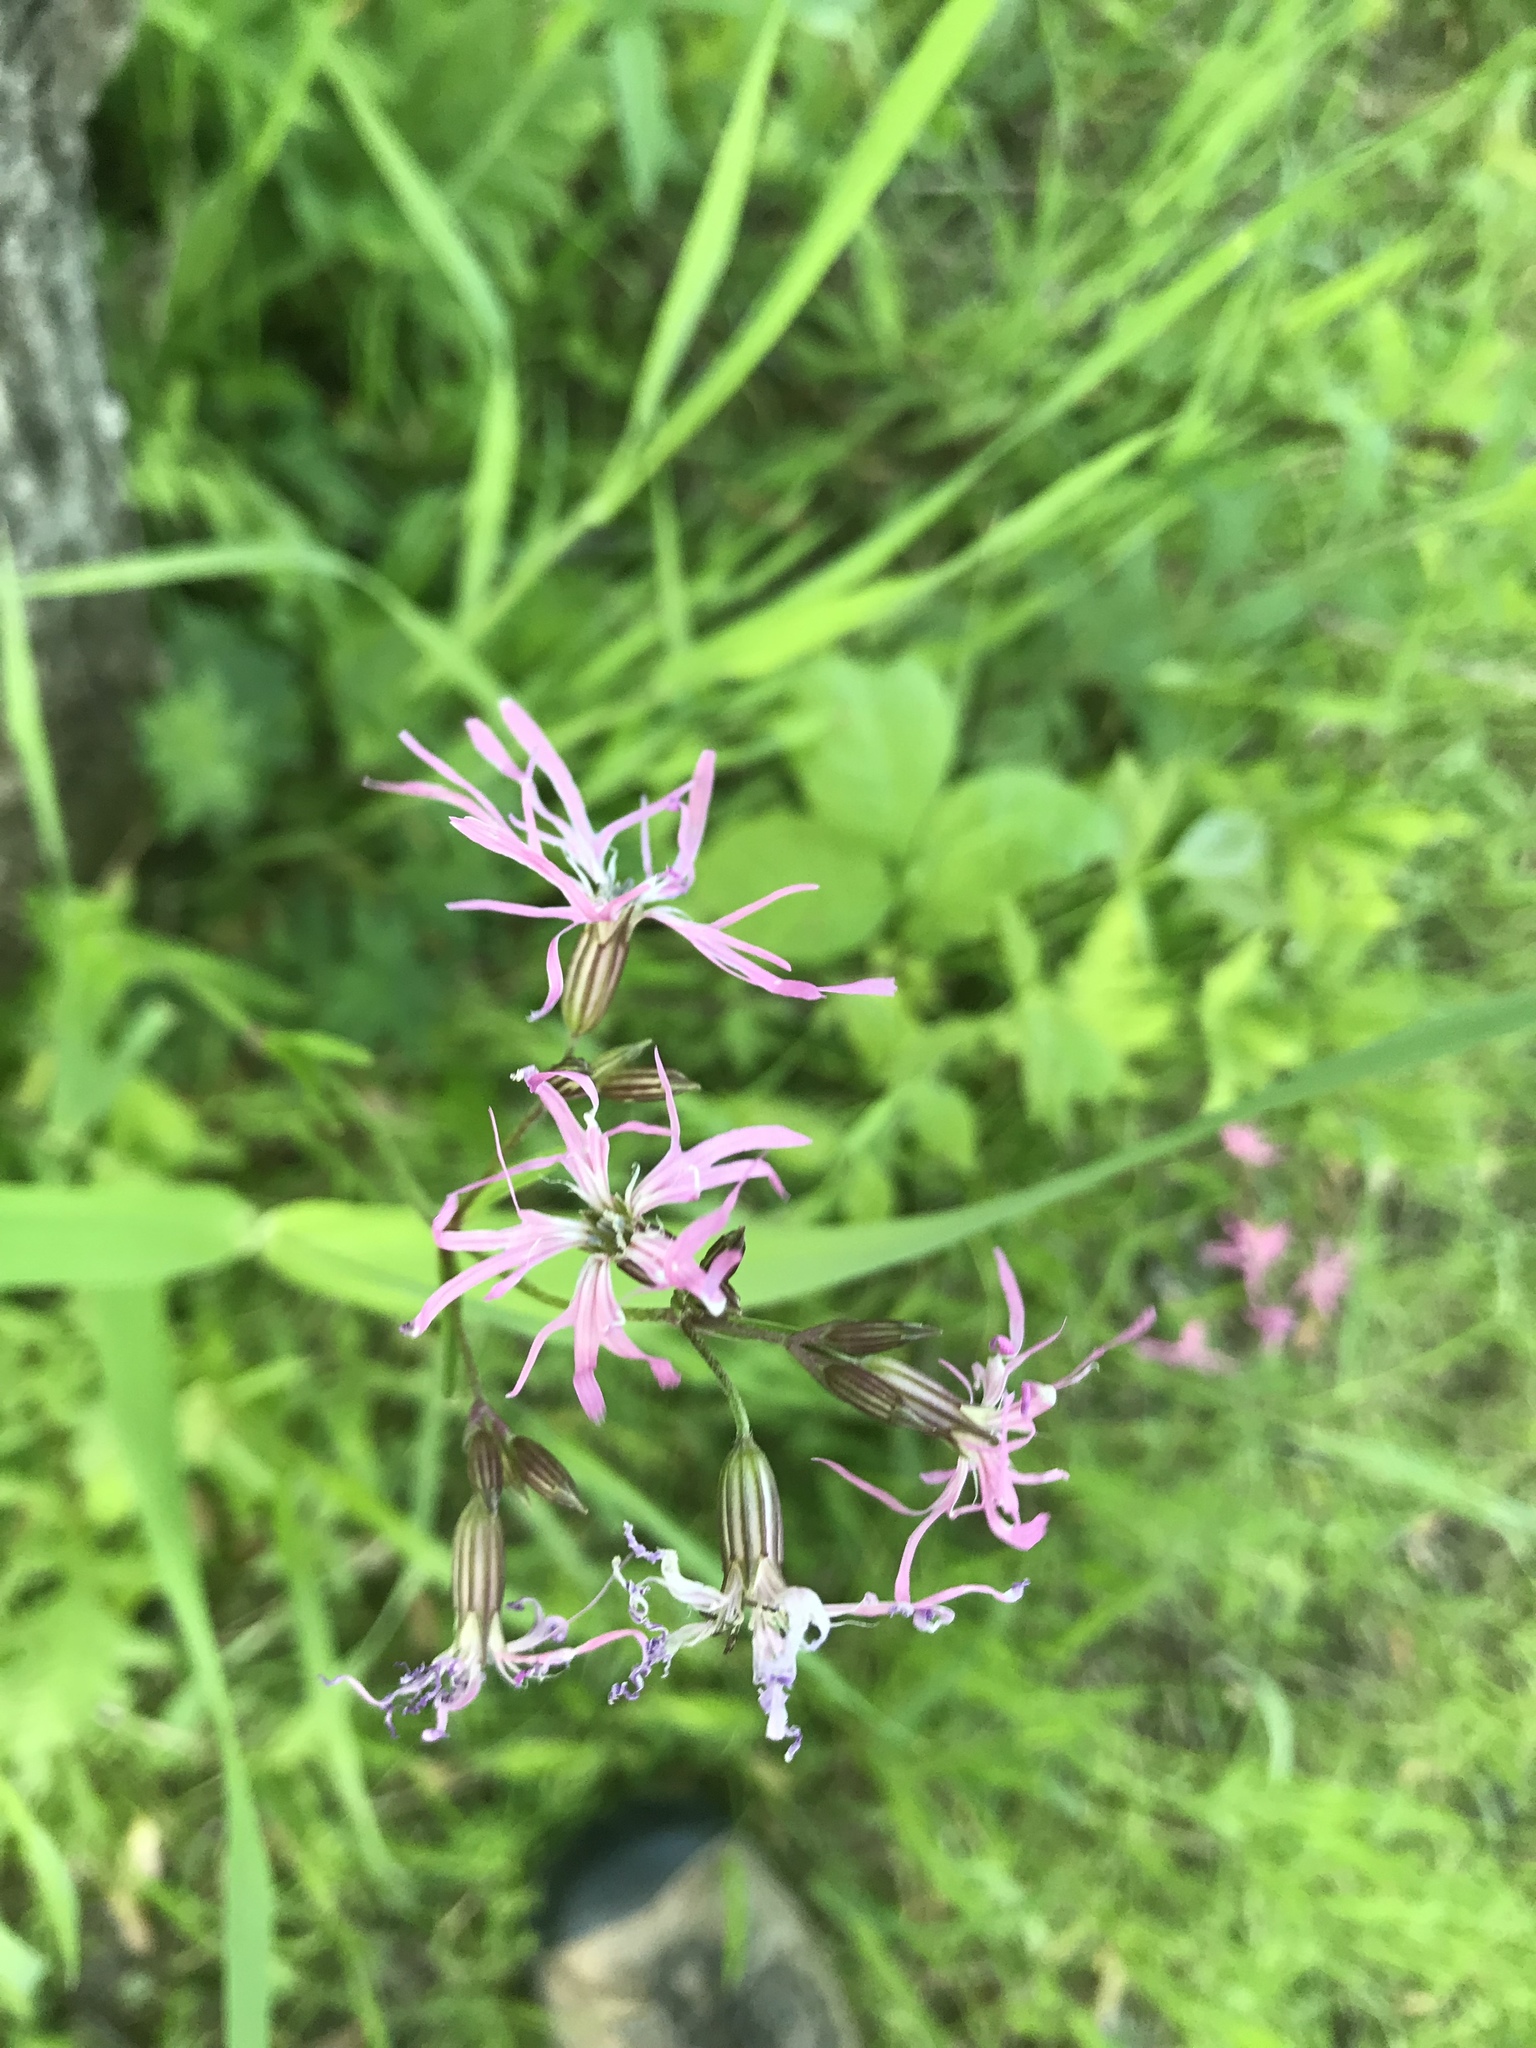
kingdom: Plantae
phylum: Tracheophyta
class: Magnoliopsida
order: Caryophyllales
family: Caryophyllaceae
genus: Silene
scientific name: Silene flos-cuculi
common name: Ragged-robin
